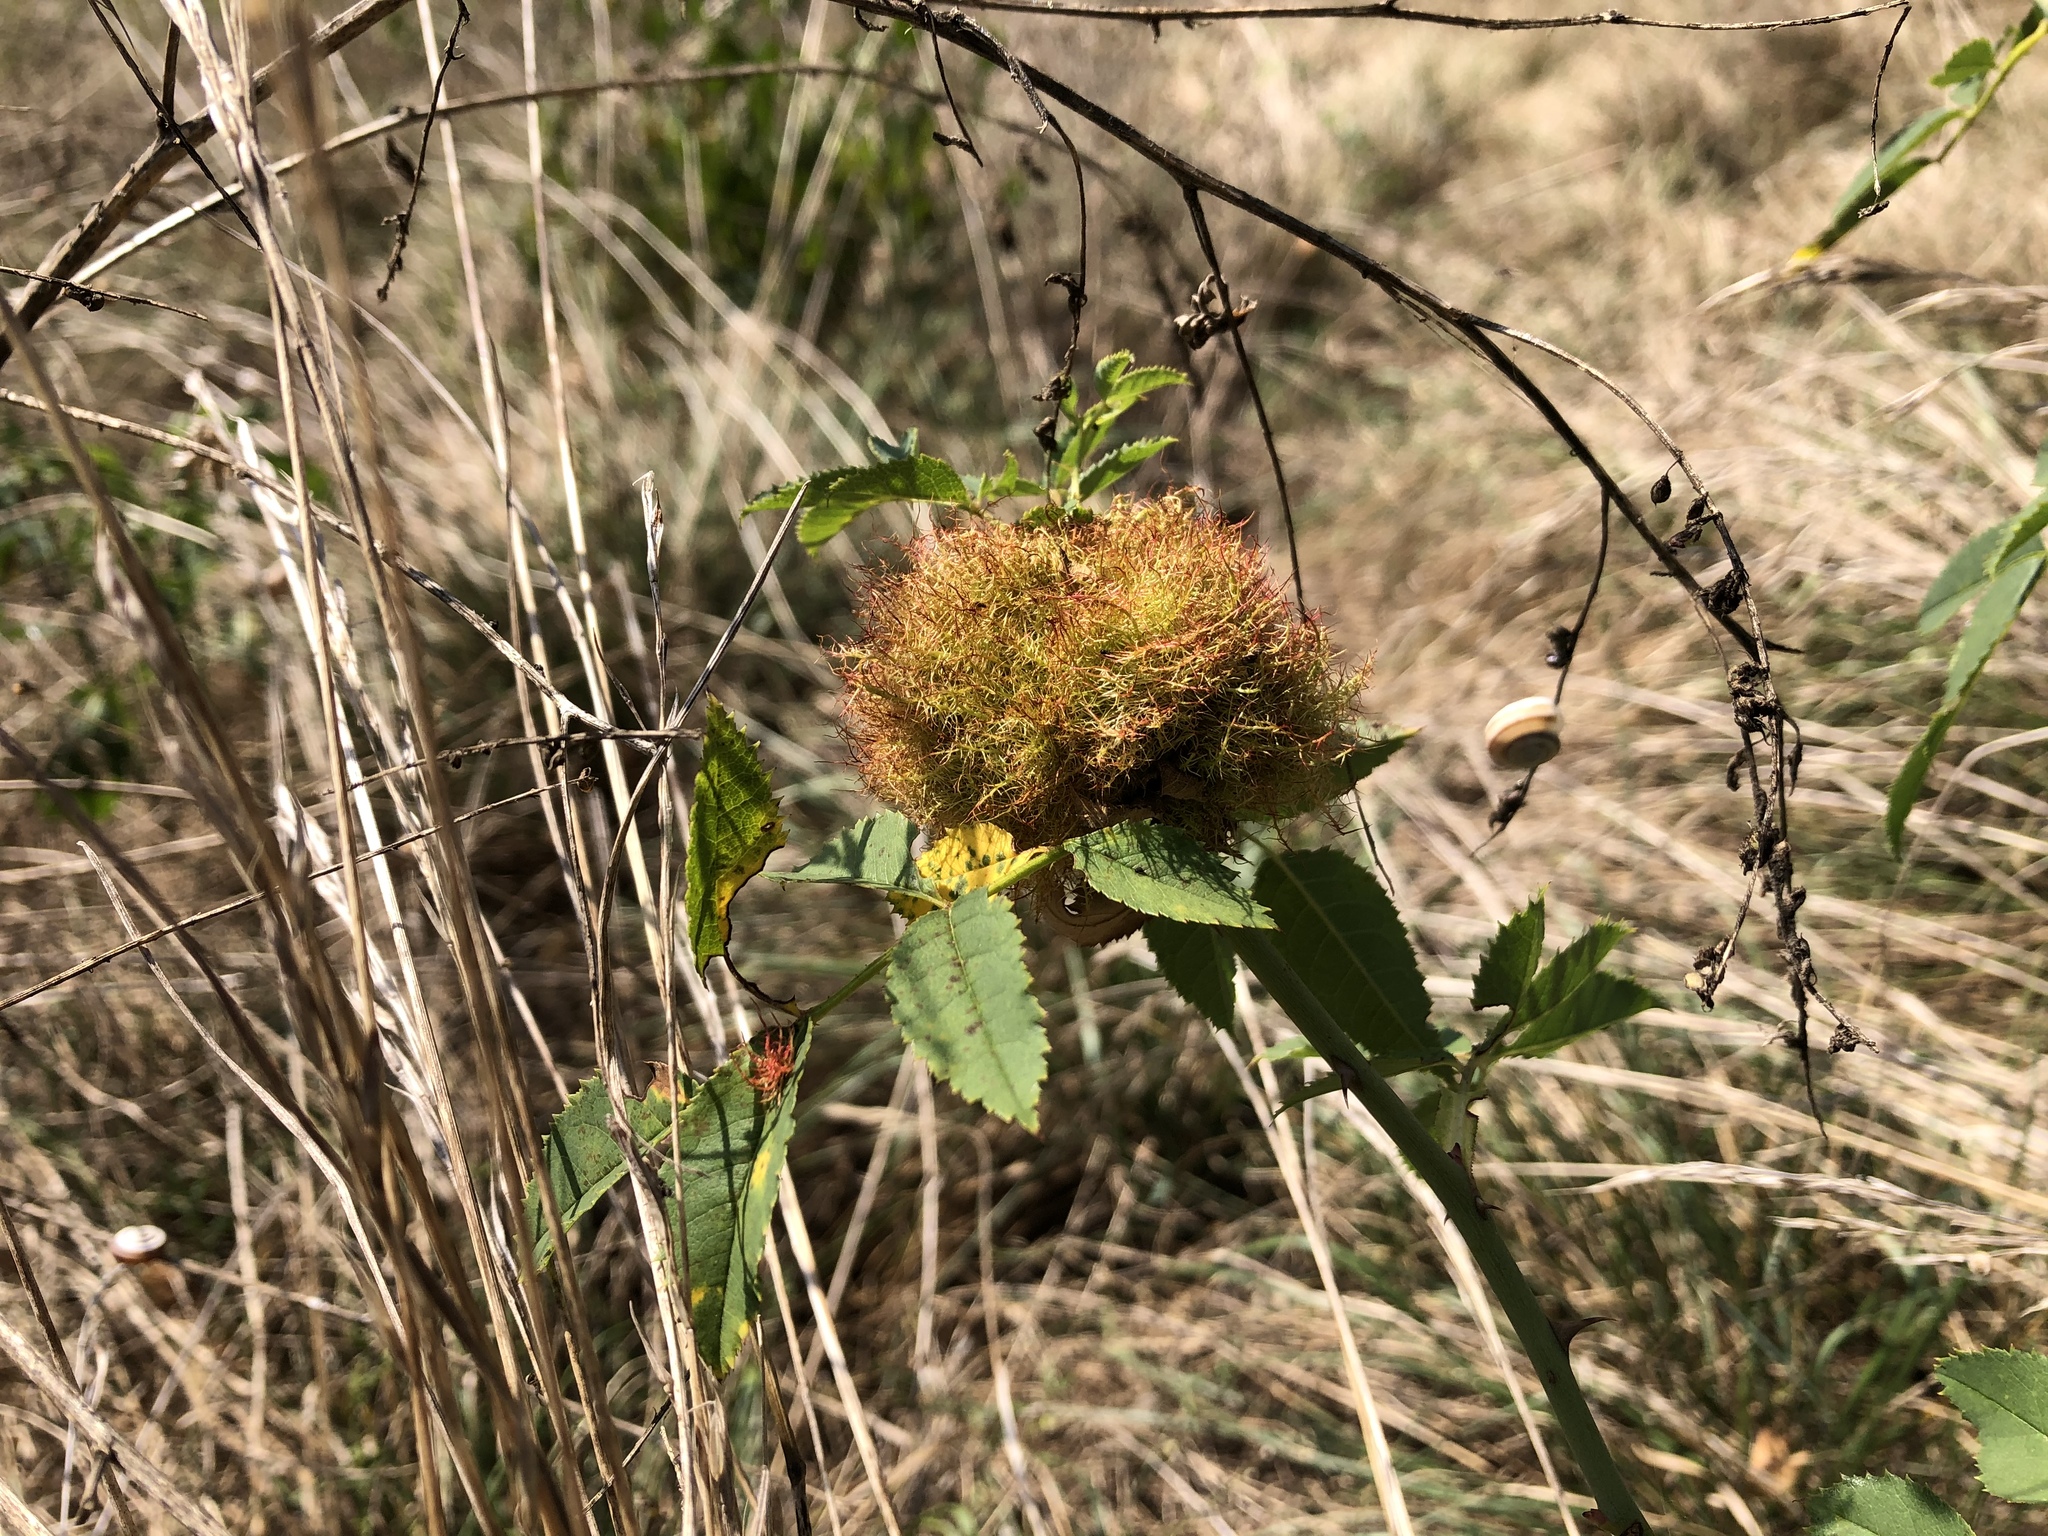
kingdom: Animalia
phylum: Arthropoda
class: Insecta
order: Hymenoptera
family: Cynipidae
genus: Diplolepis
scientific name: Diplolepis rosae
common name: Bedeguar gall
